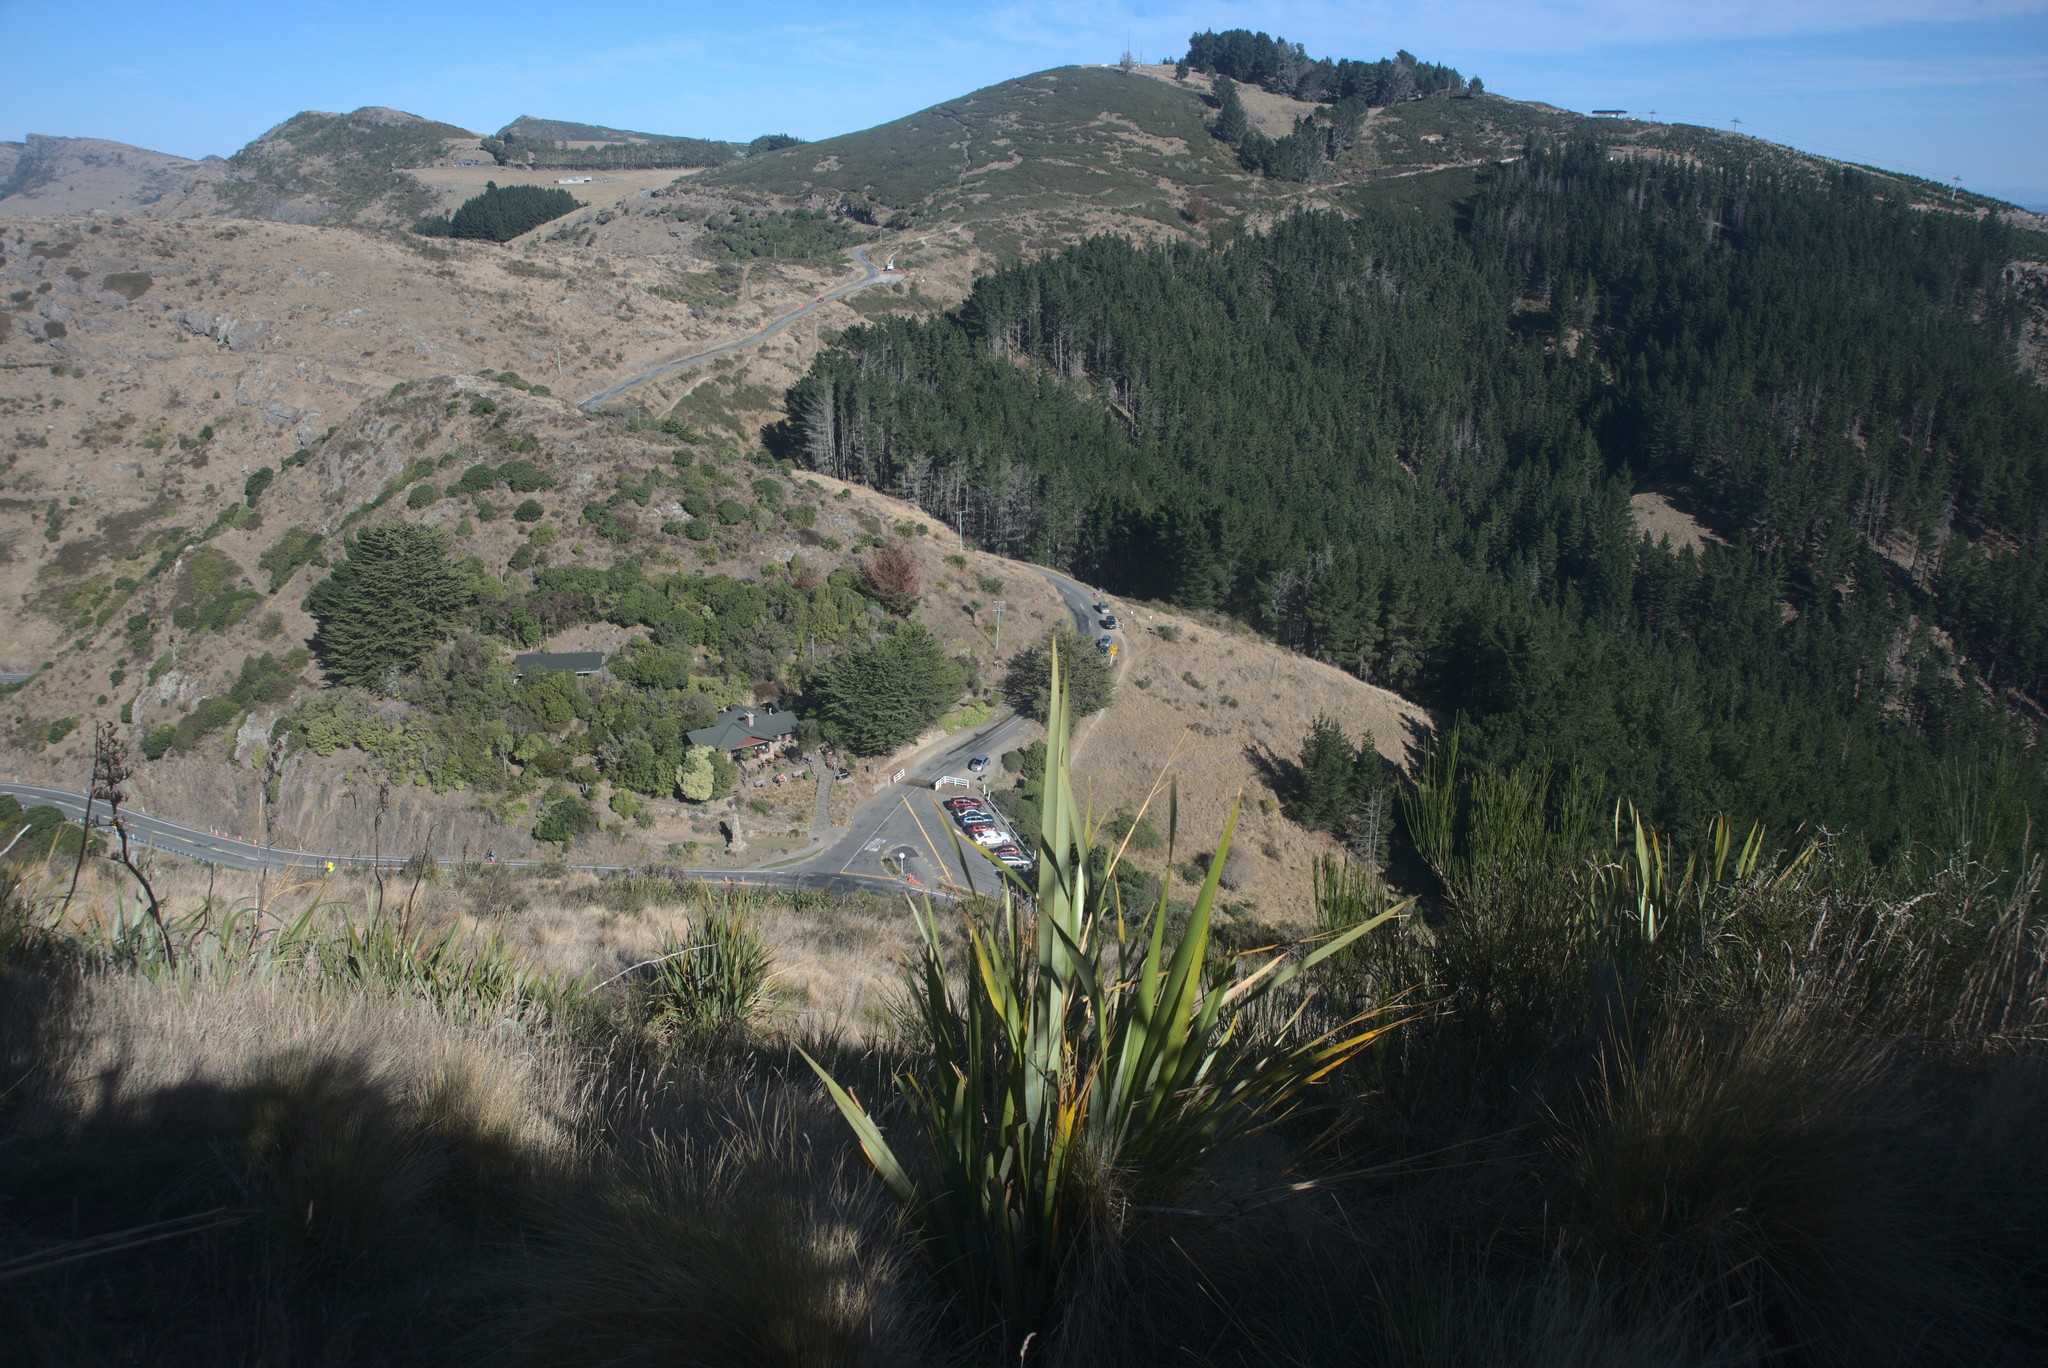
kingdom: Plantae
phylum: Tracheophyta
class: Magnoliopsida
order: Fabales
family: Fabaceae
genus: Cytisus
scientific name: Cytisus scoparius
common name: Scotch broom
